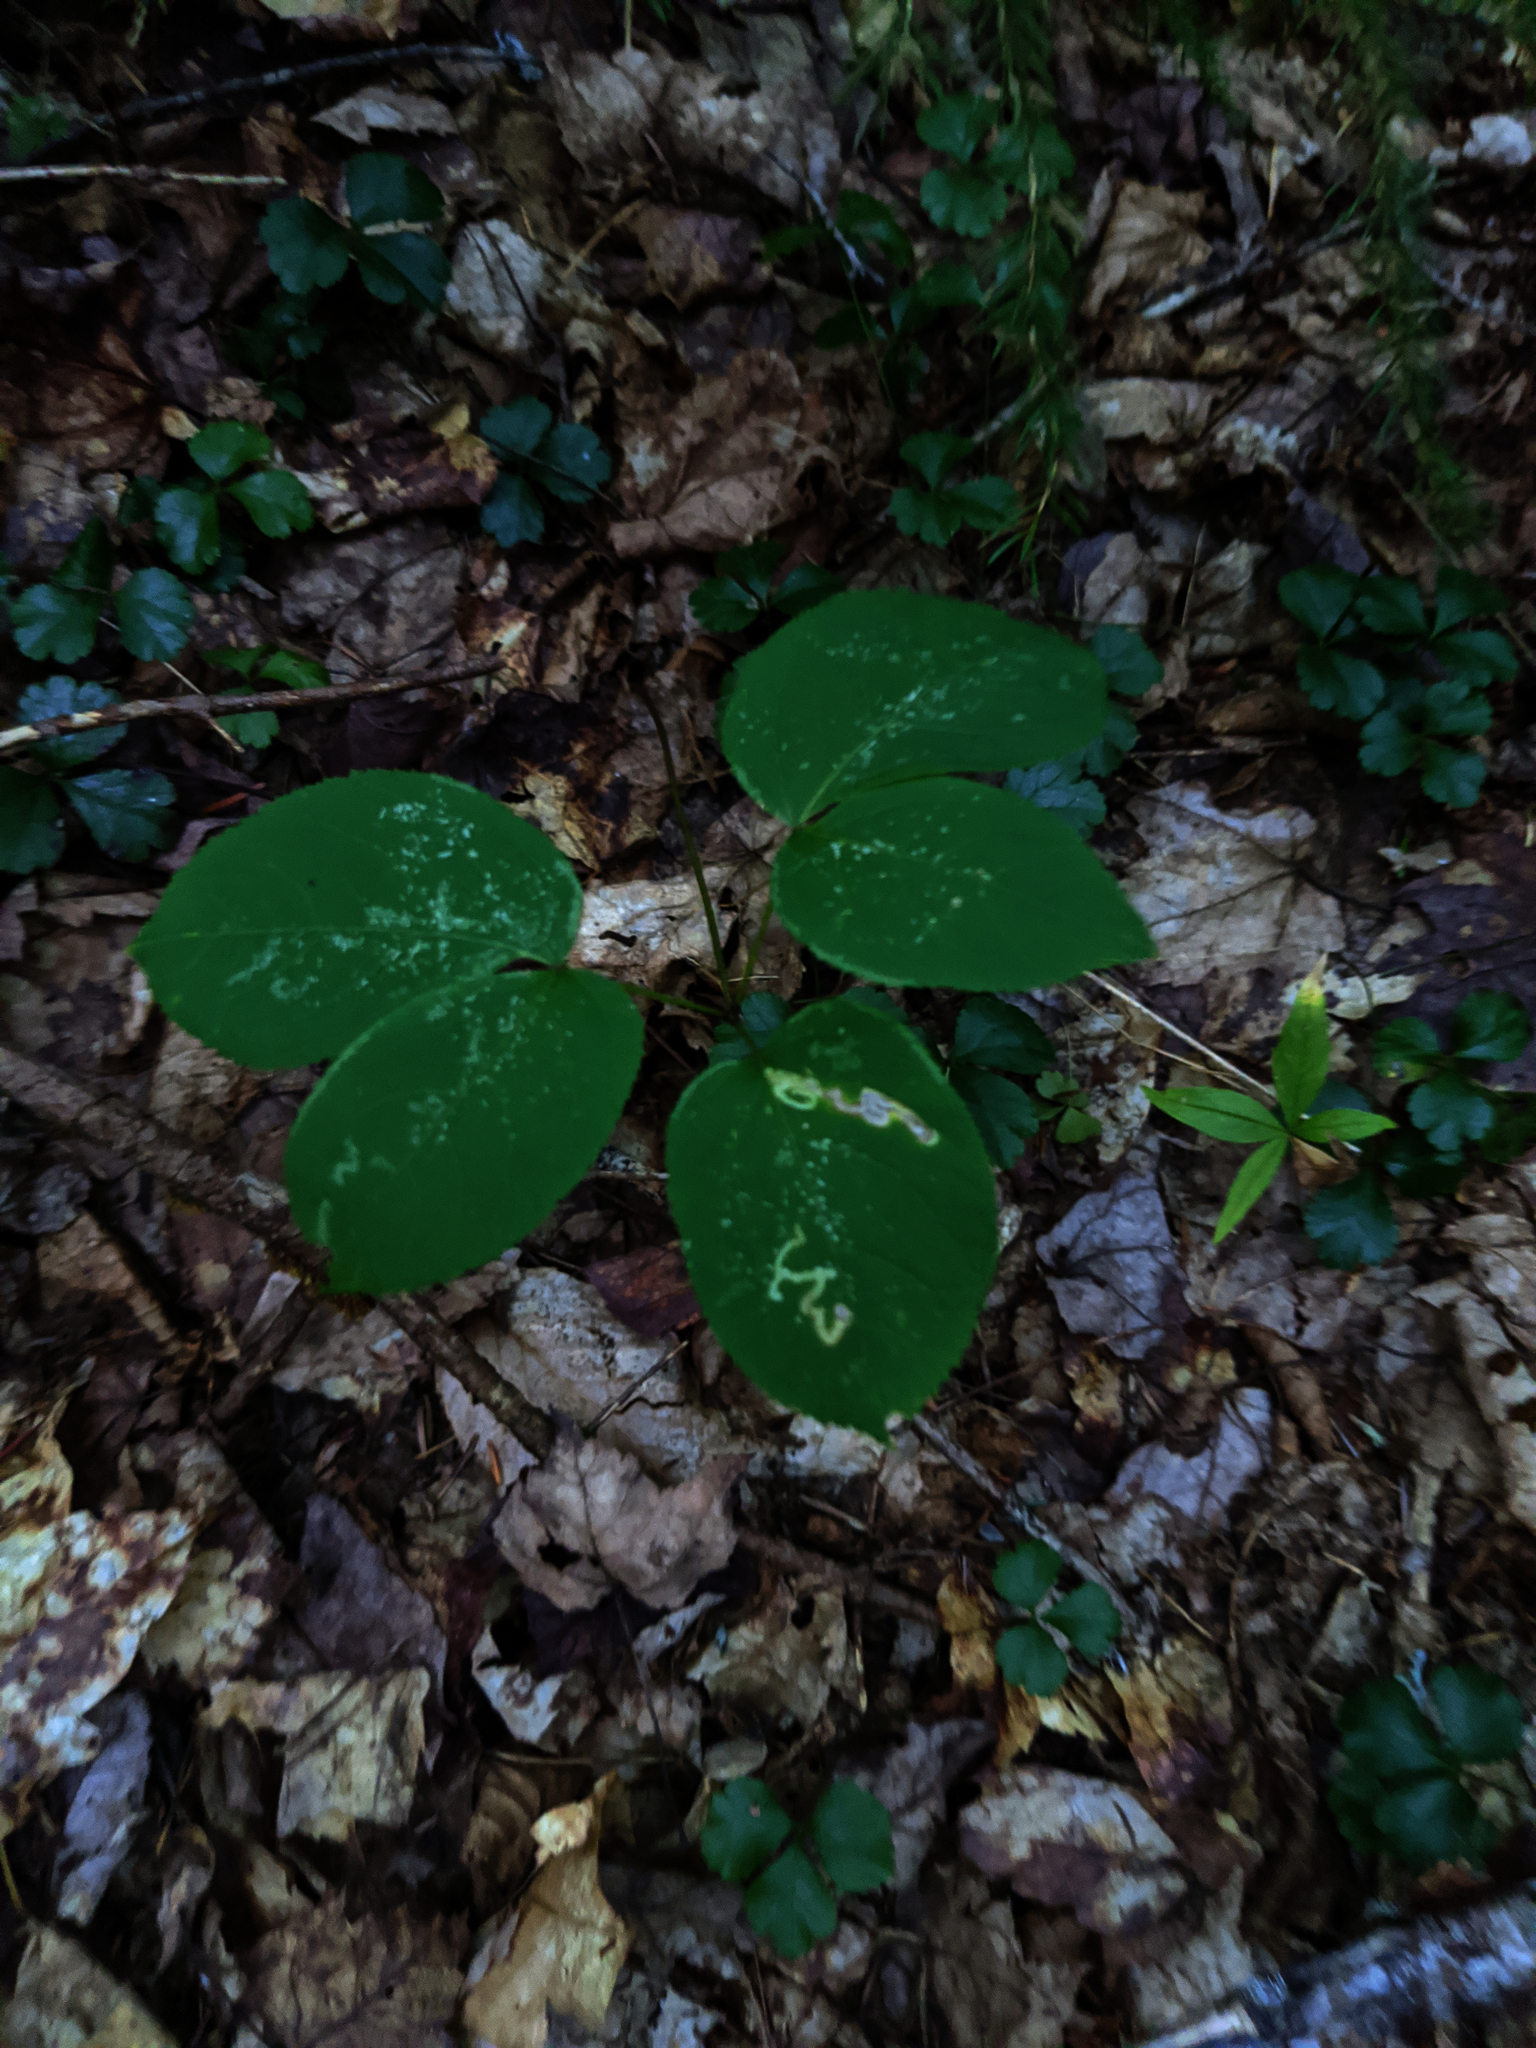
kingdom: Plantae
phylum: Tracheophyta
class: Magnoliopsida
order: Apiales
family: Araliaceae
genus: Aralia
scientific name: Aralia nudicaulis
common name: Wild sarsaparilla
